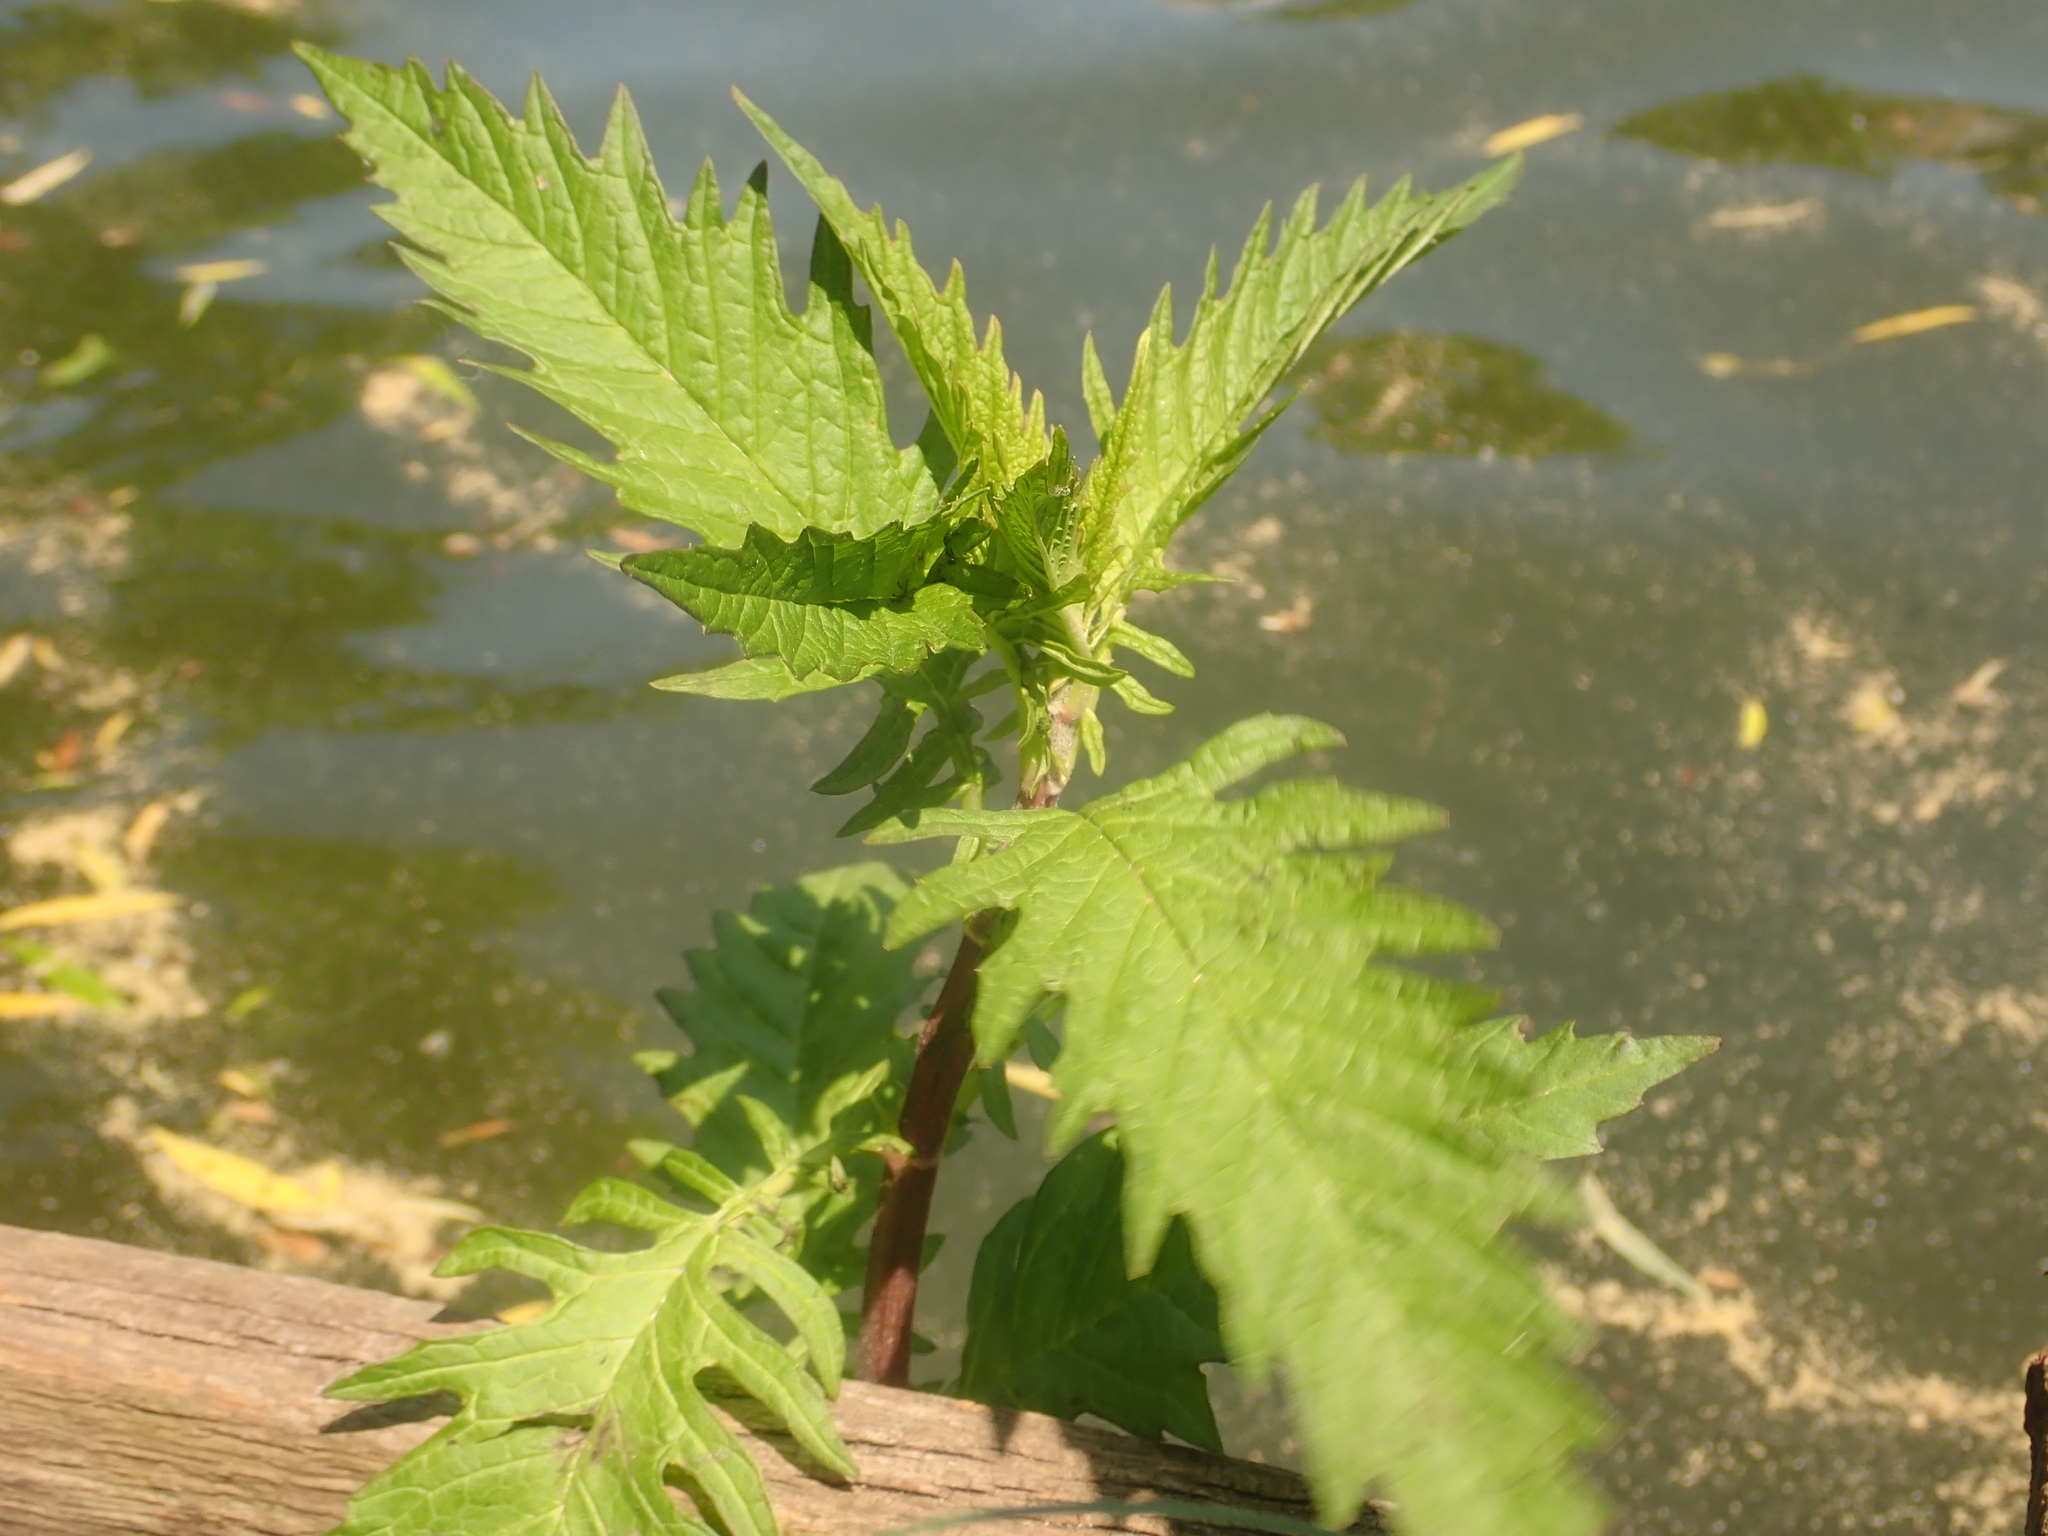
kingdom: Plantae
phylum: Tracheophyta
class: Magnoliopsida
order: Lamiales
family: Lamiaceae
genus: Lycopus
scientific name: Lycopus europaeus
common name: European bugleweed
